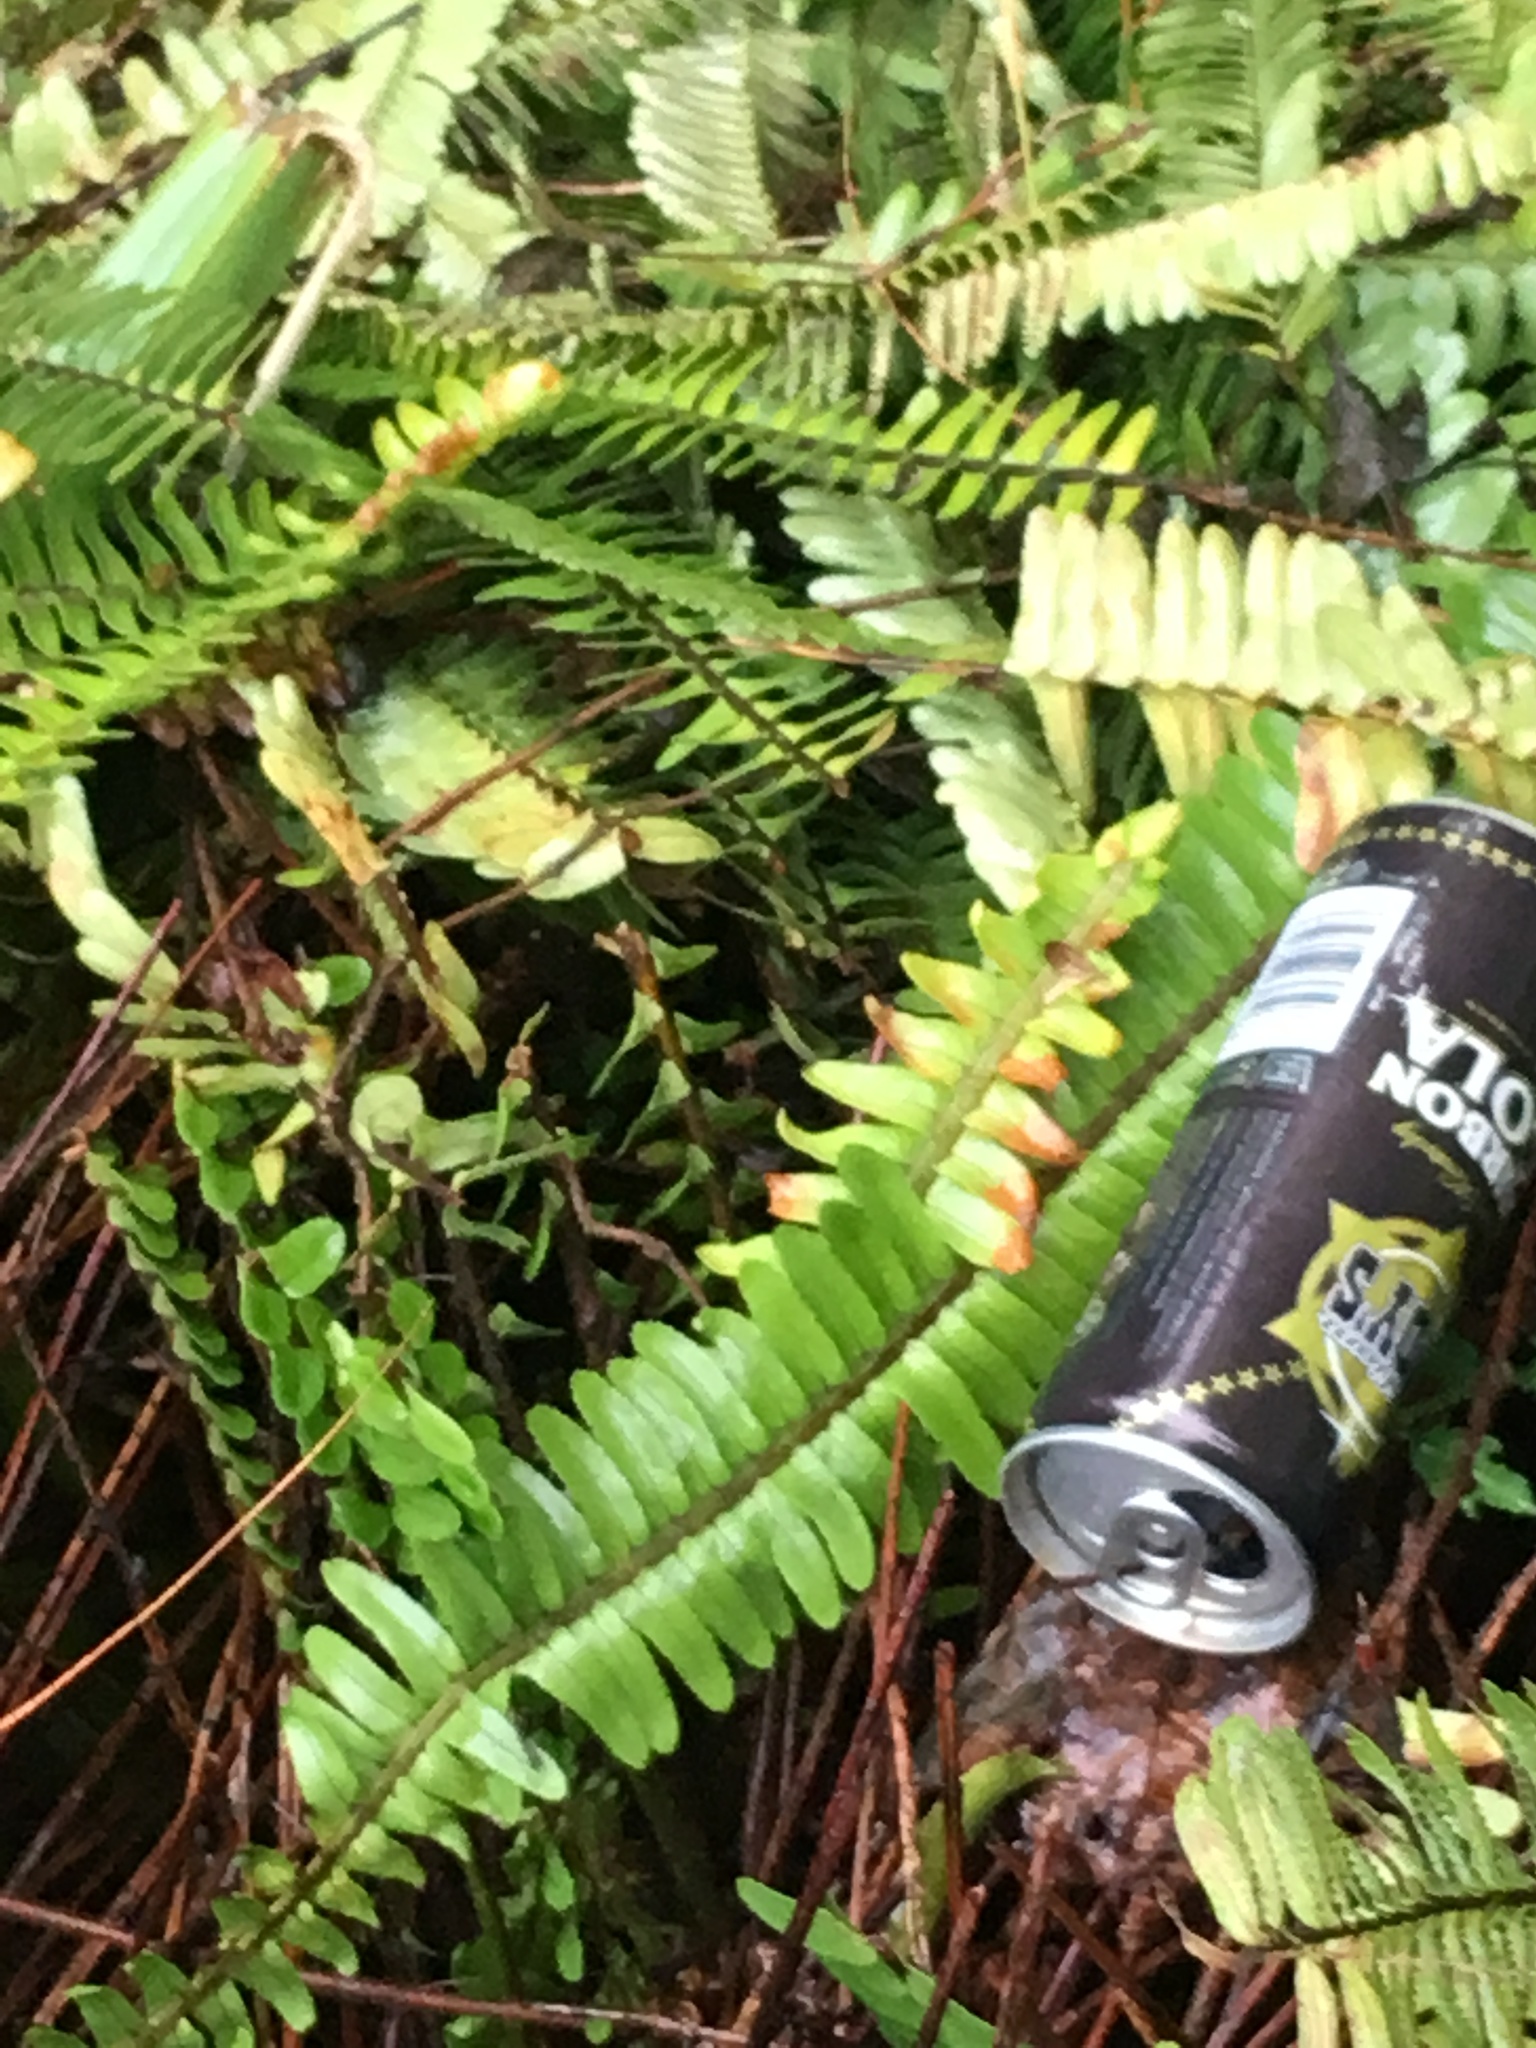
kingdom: Plantae
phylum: Tracheophyta
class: Polypodiopsida
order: Polypodiales
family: Nephrolepidaceae
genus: Nephrolepis
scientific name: Nephrolepis cordifolia
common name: Narrow swordfern
